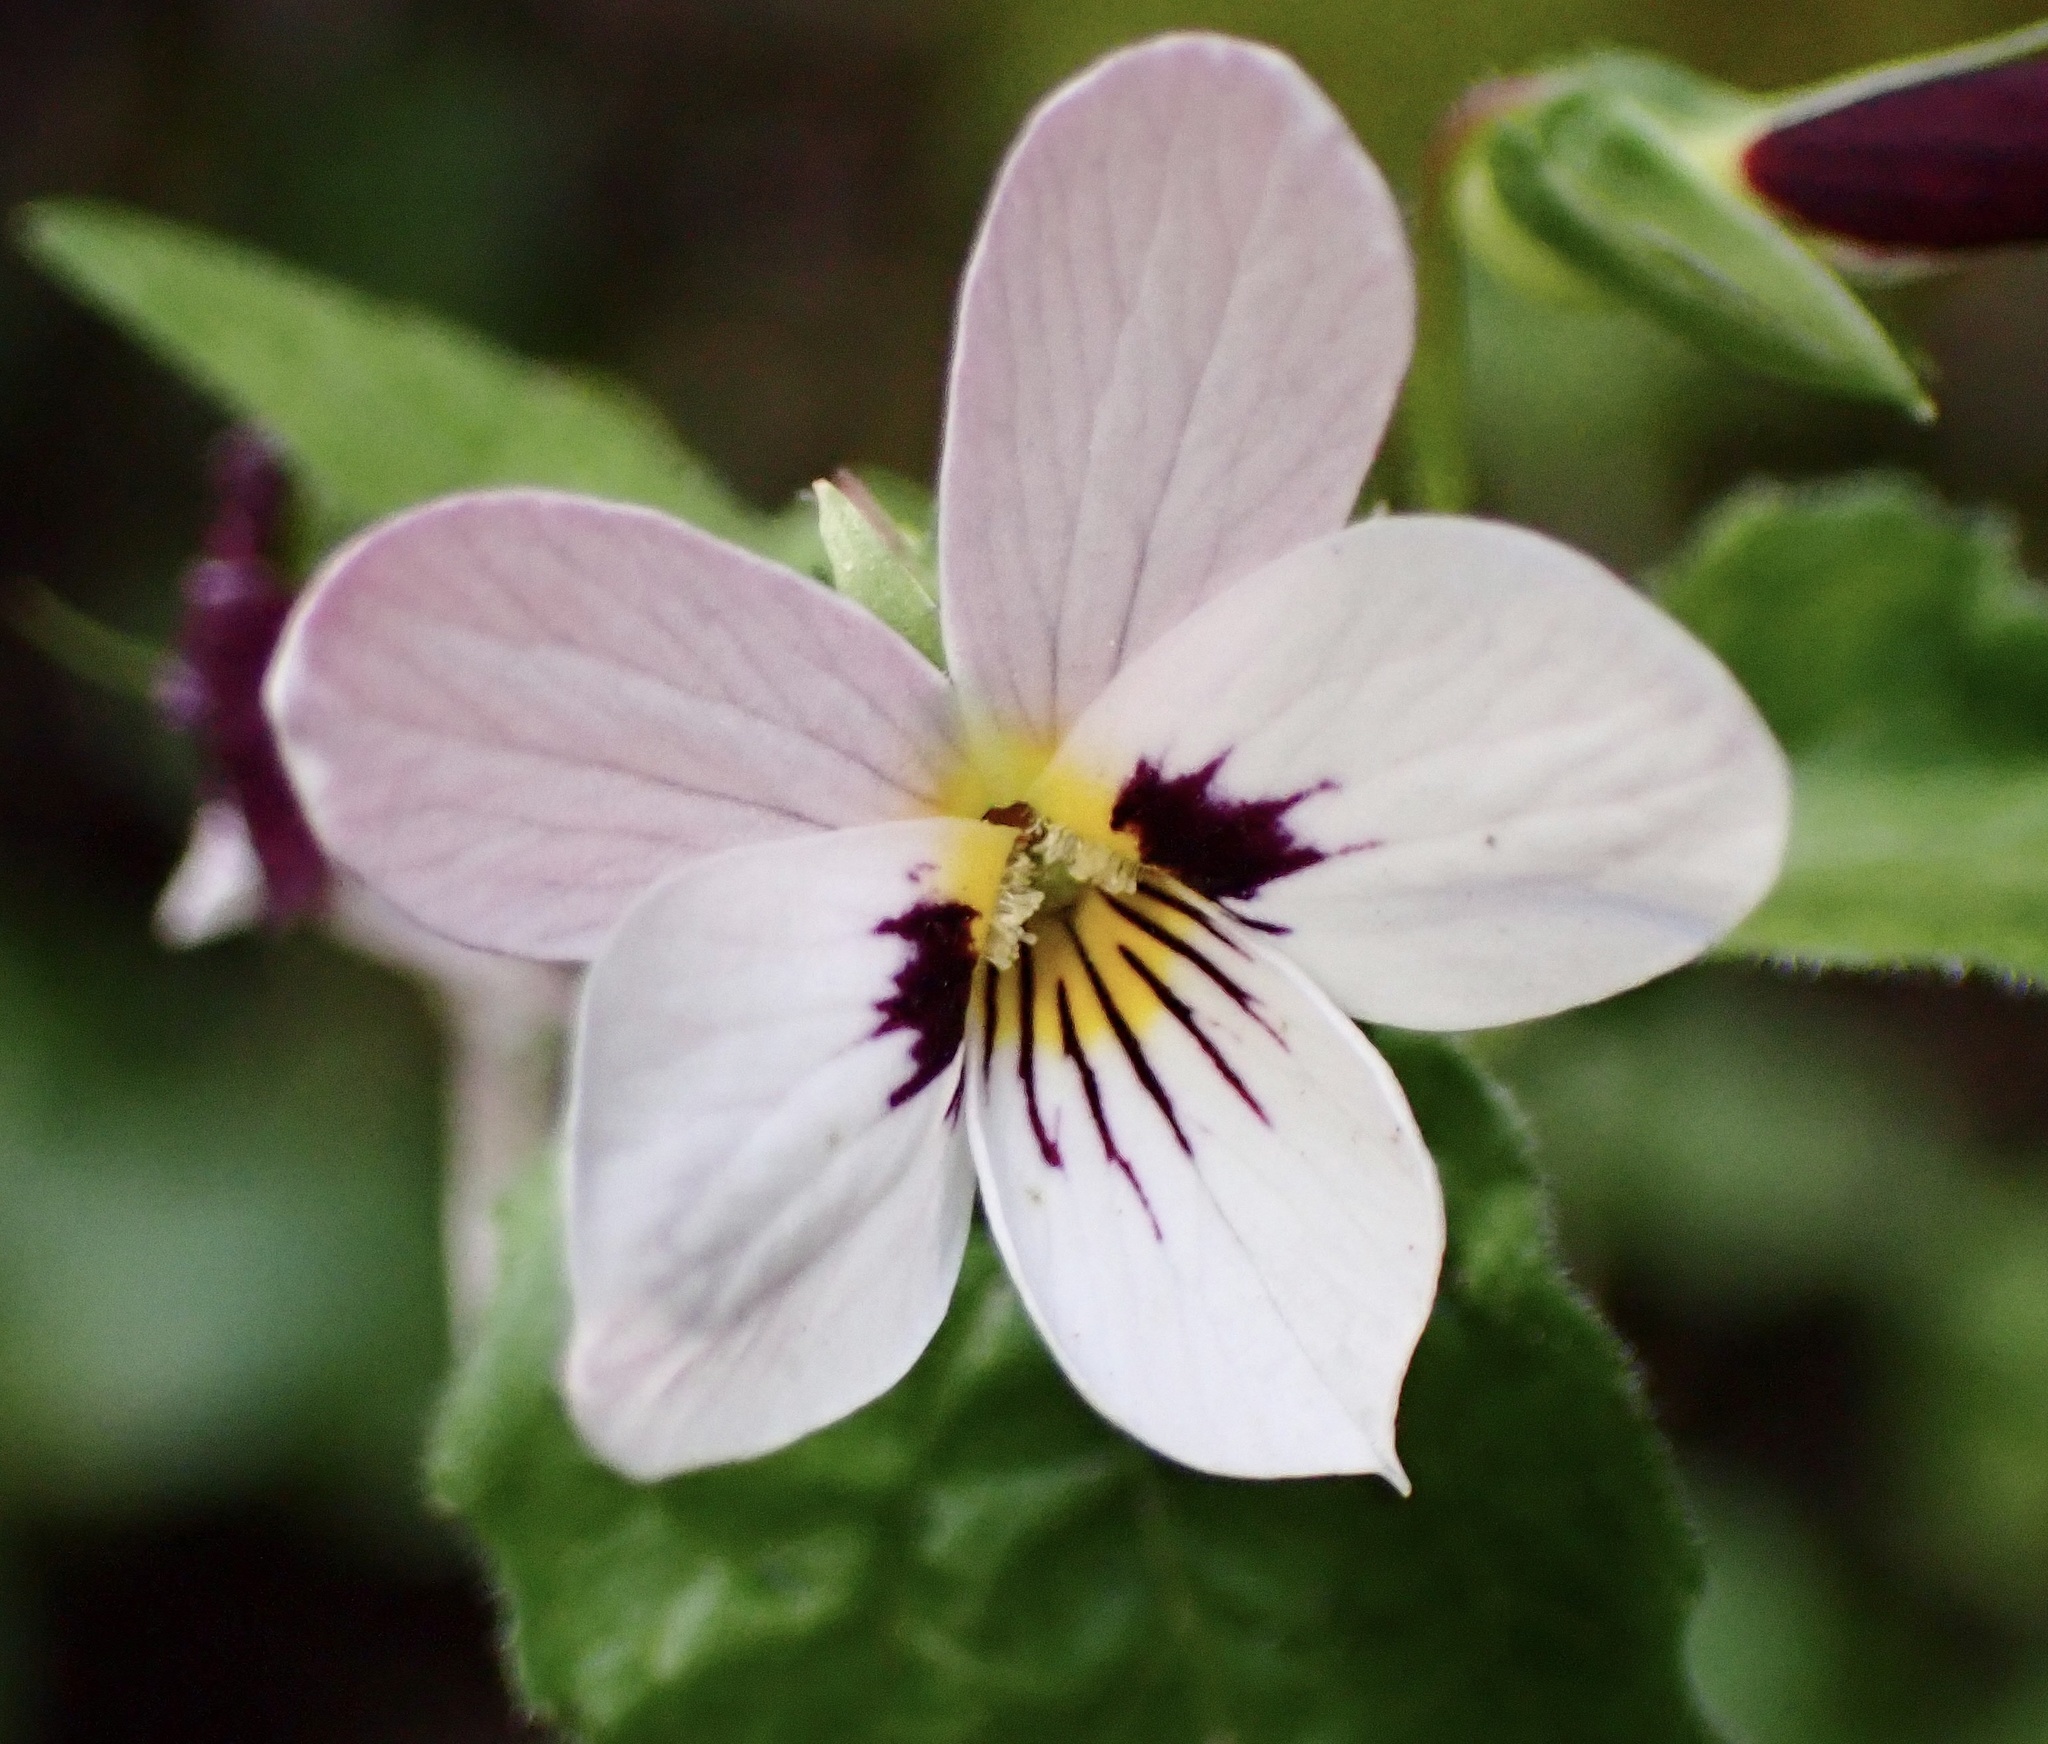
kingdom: Plantae
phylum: Tracheophyta
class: Magnoliopsida
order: Malpighiales
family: Violaceae
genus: Viola
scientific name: Viola ocellata
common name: Western heart's ease
